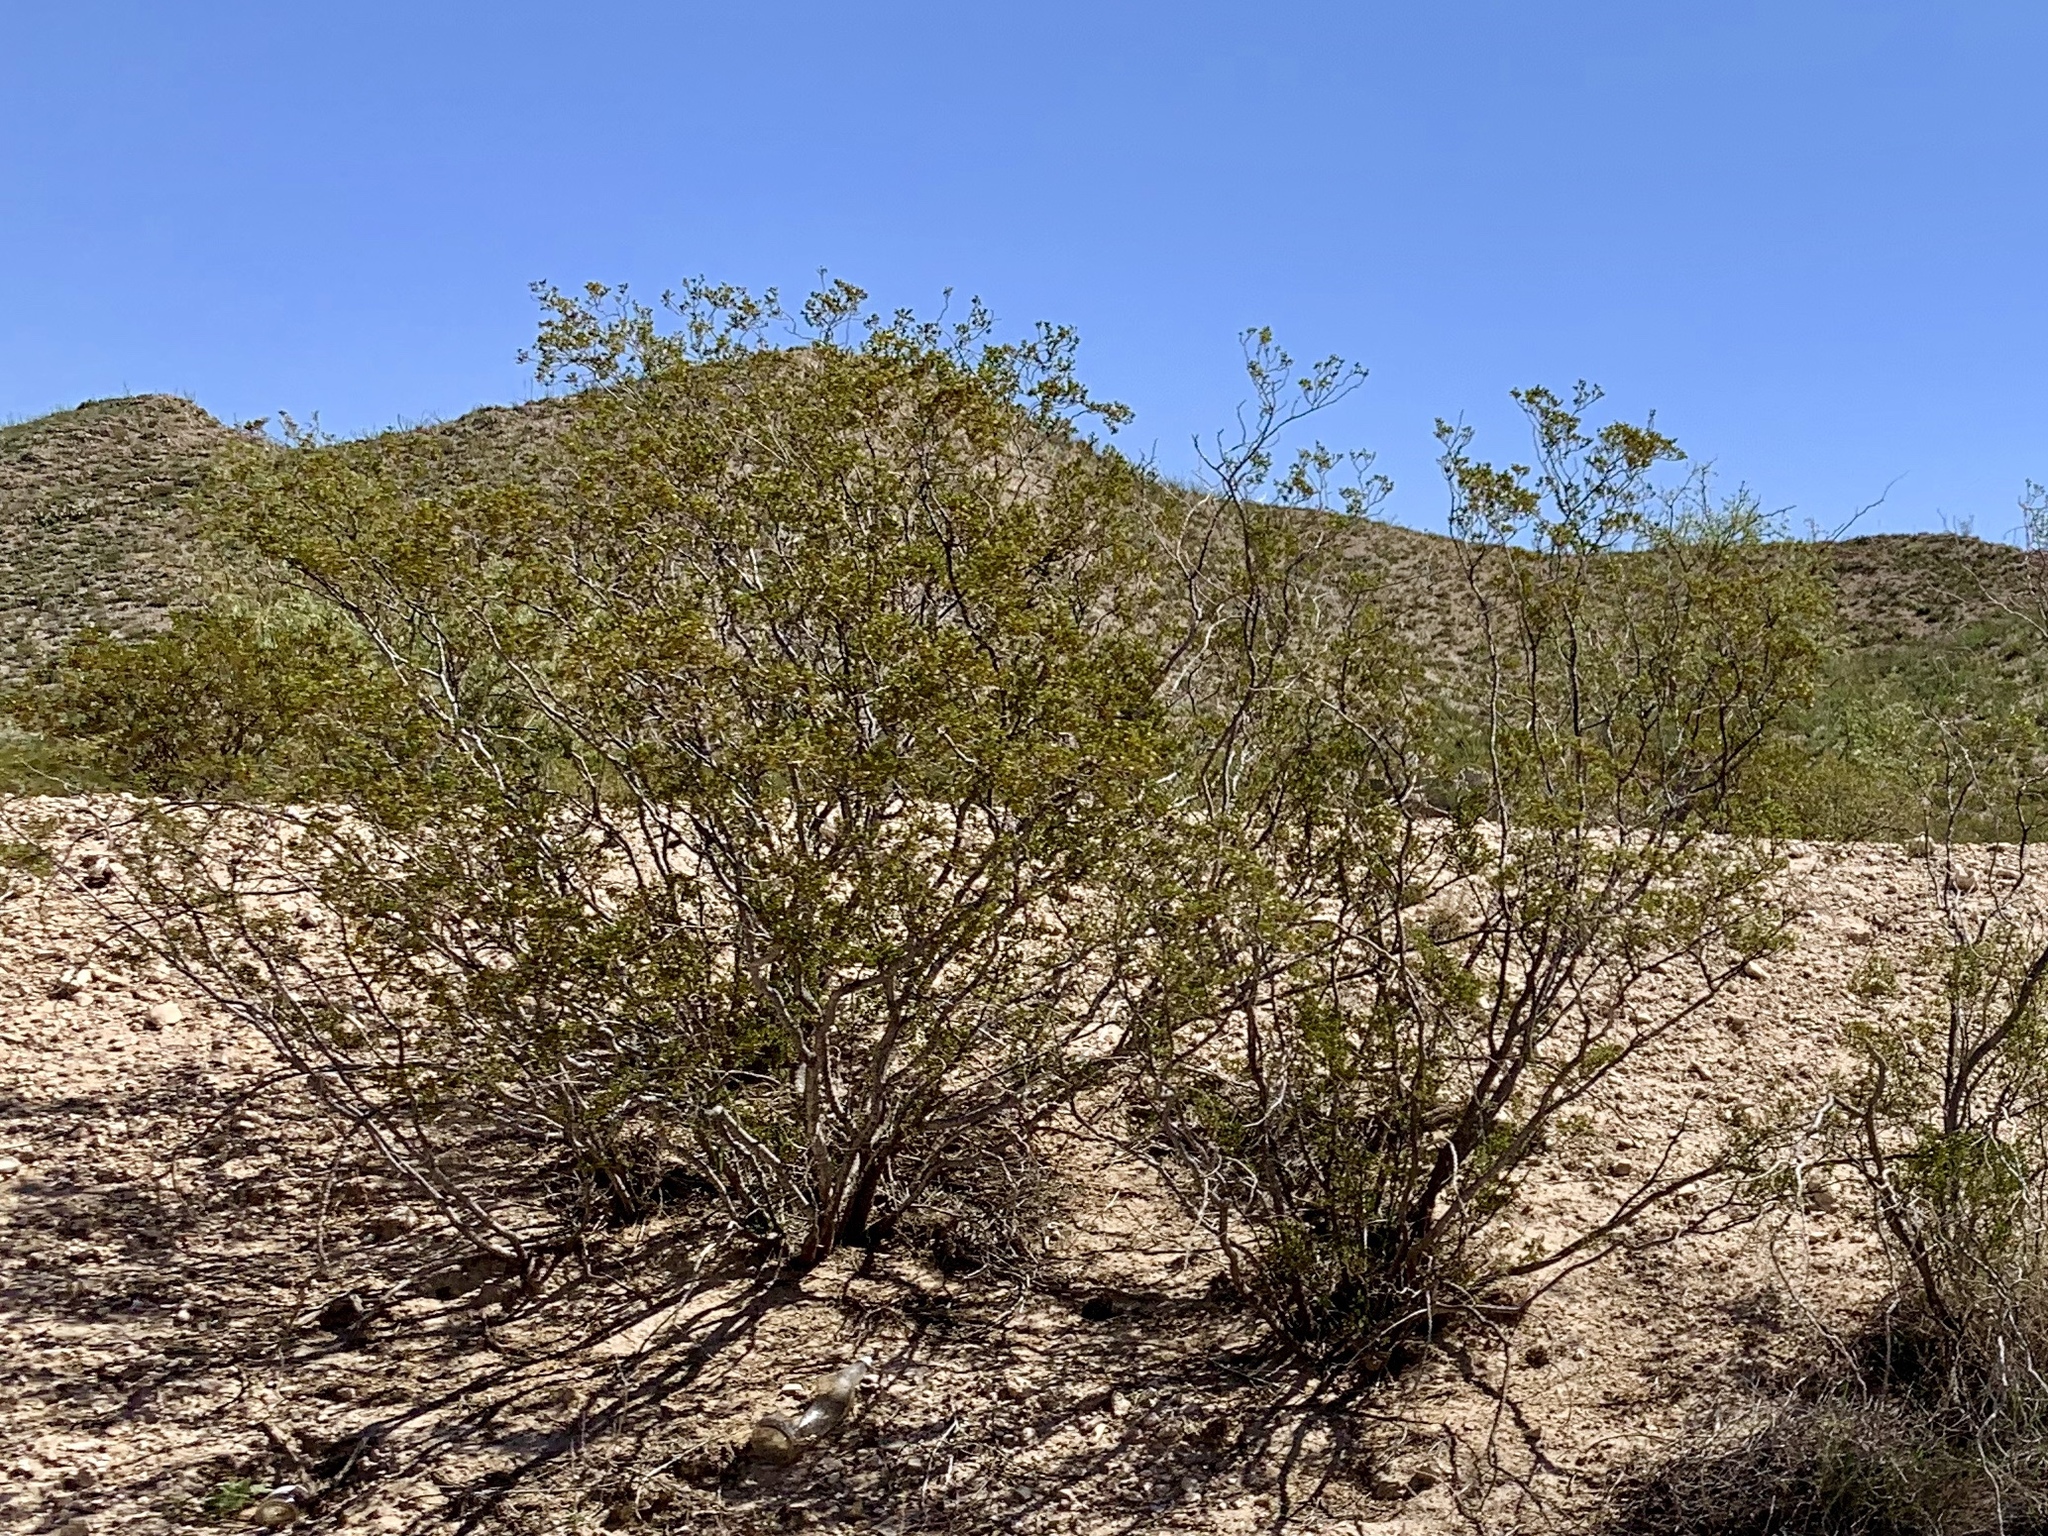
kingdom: Plantae
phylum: Tracheophyta
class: Magnoliopsida
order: Zygophyllales
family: Zygophyllaceae
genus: Larrea
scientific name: Larrea tridentata
